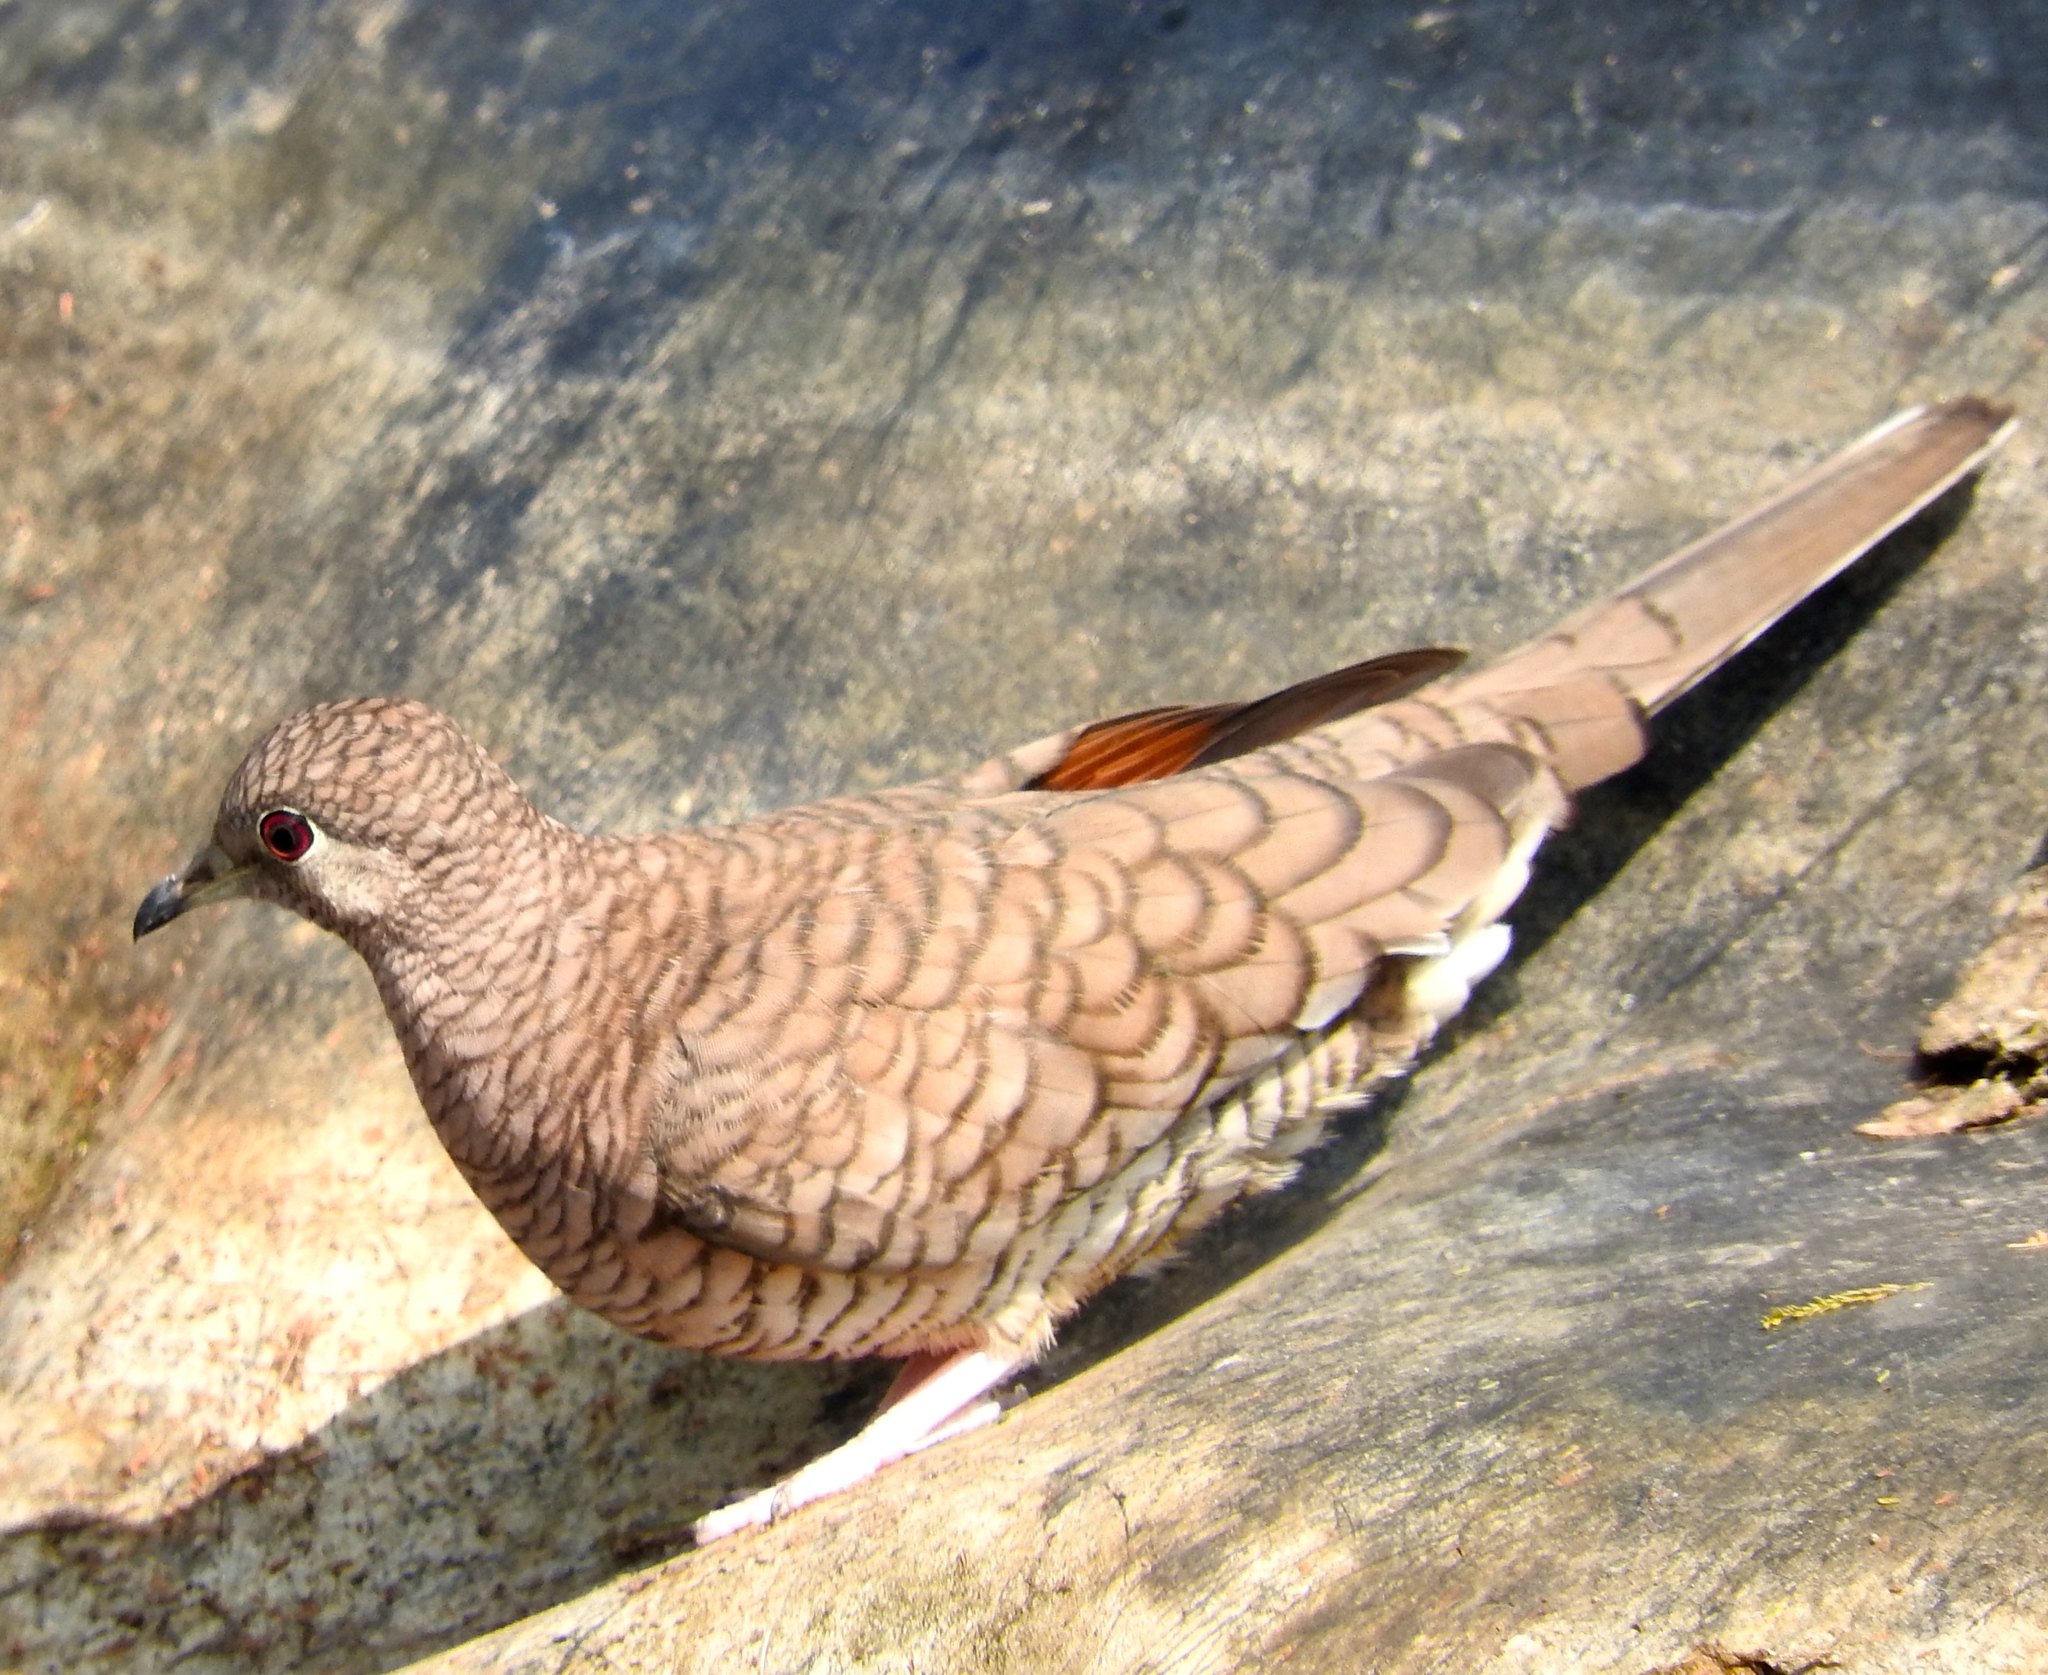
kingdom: Animalia
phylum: Chordata
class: Aves
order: Columbiformes
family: Columbidae
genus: Columbina
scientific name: Columbina inca
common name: Inca dove
